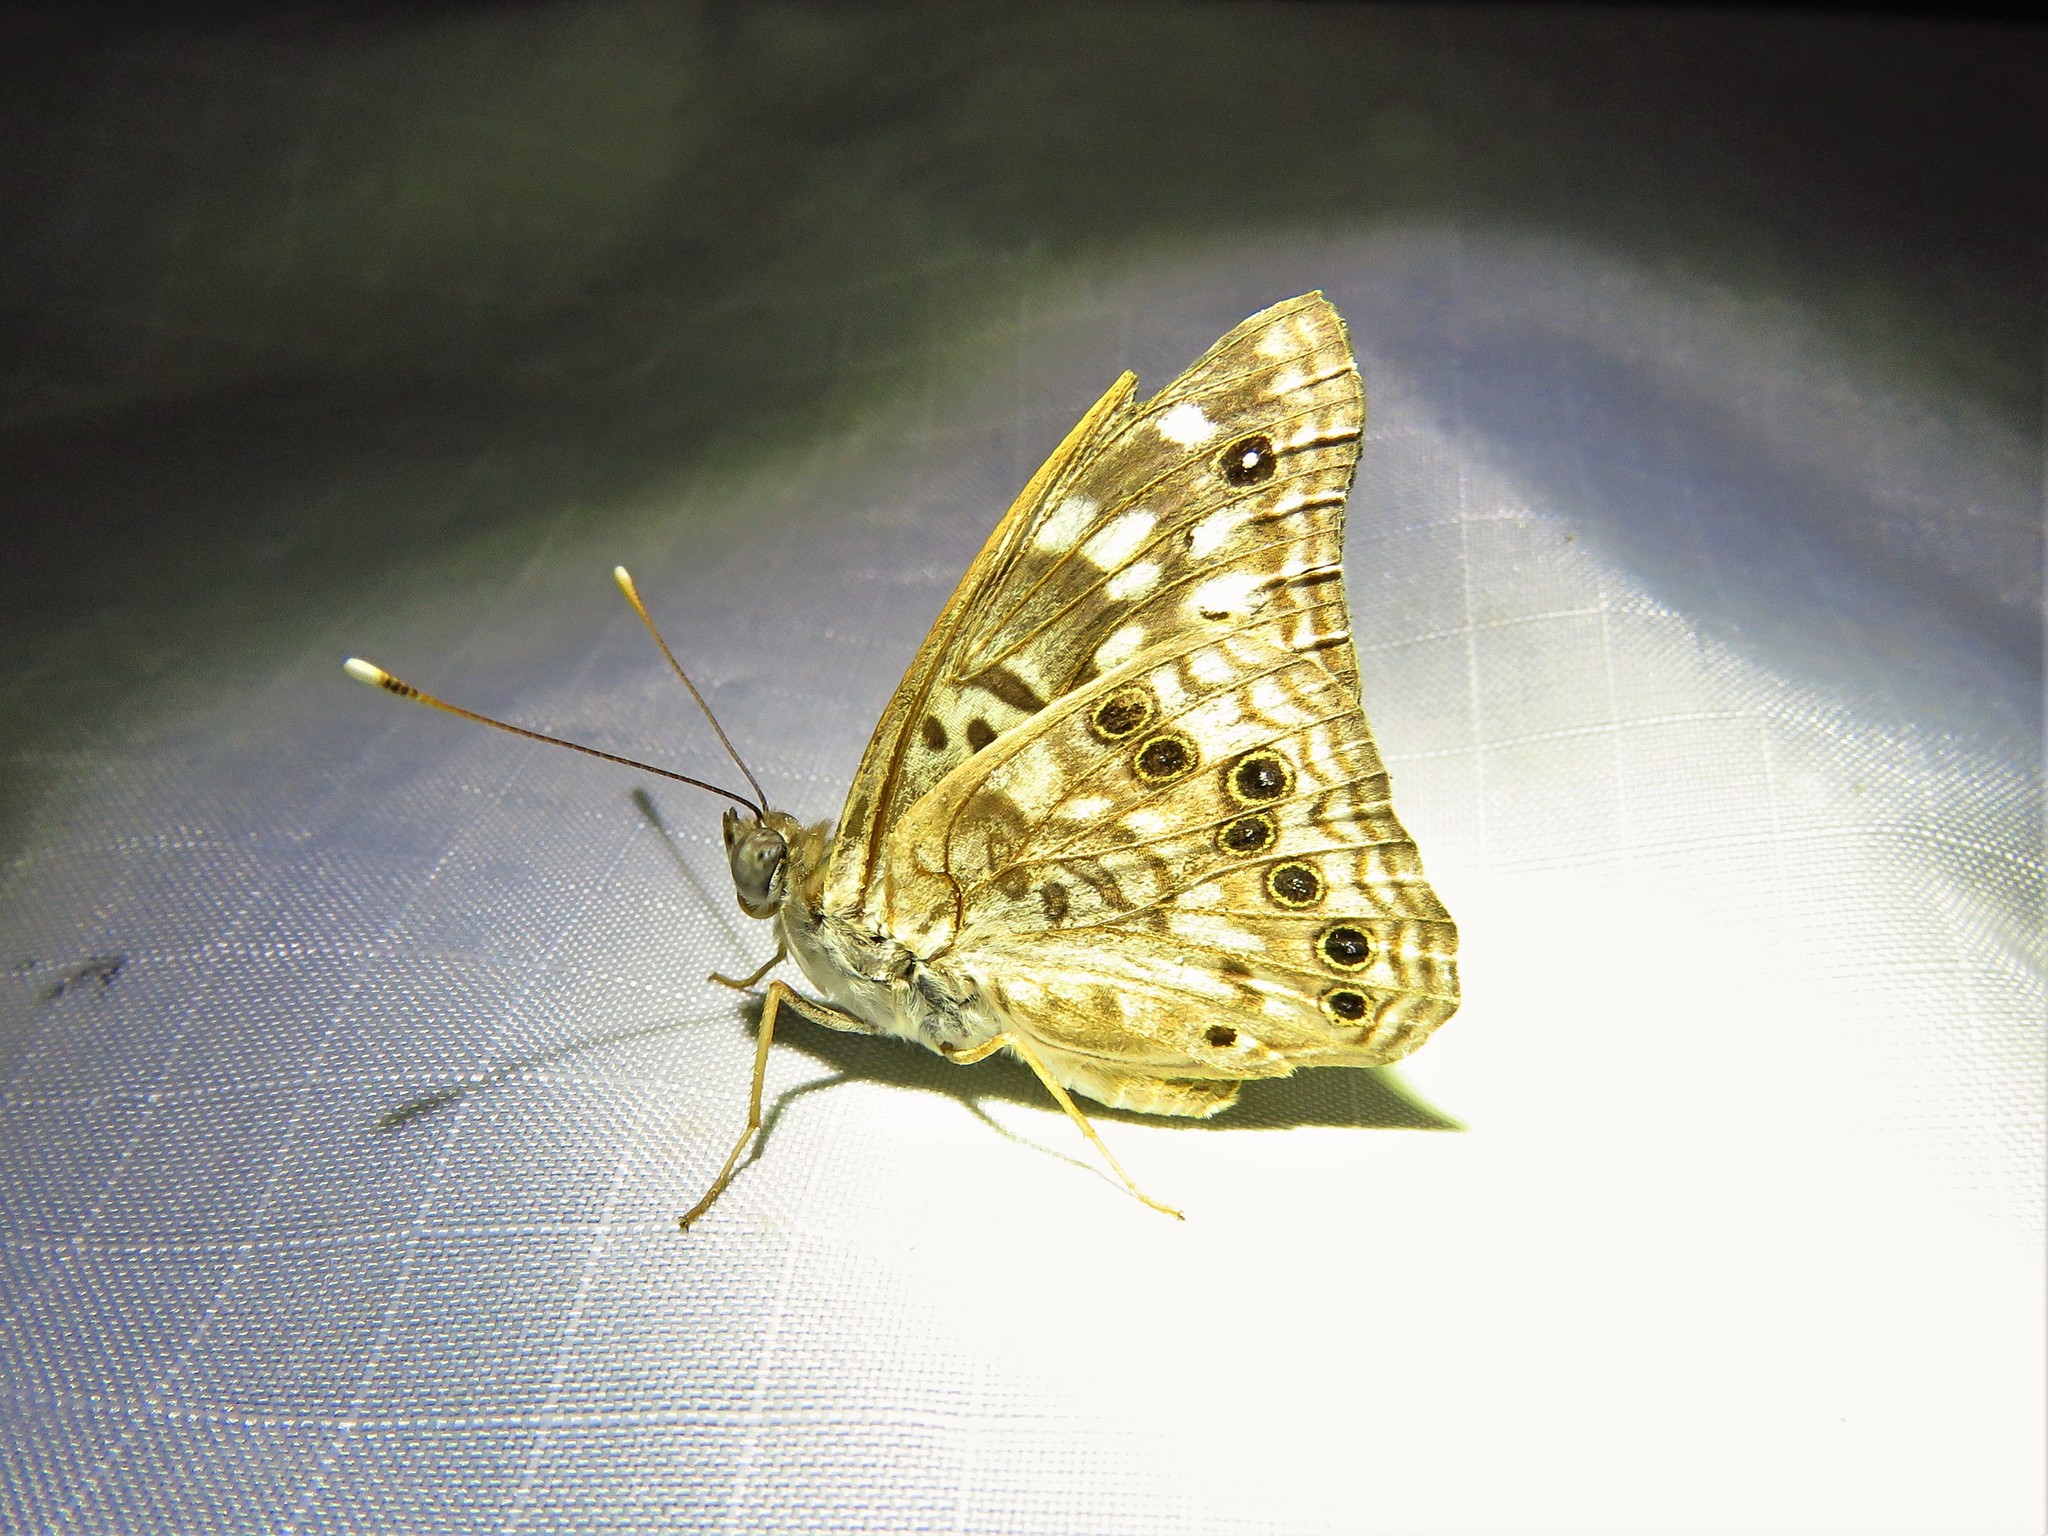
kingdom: Animalia
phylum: Arthropoda
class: Insecta
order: Lepidoptera
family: Nymphalidae
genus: Asterocampa
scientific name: Asterocampa celtis
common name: Hackberry emperor
